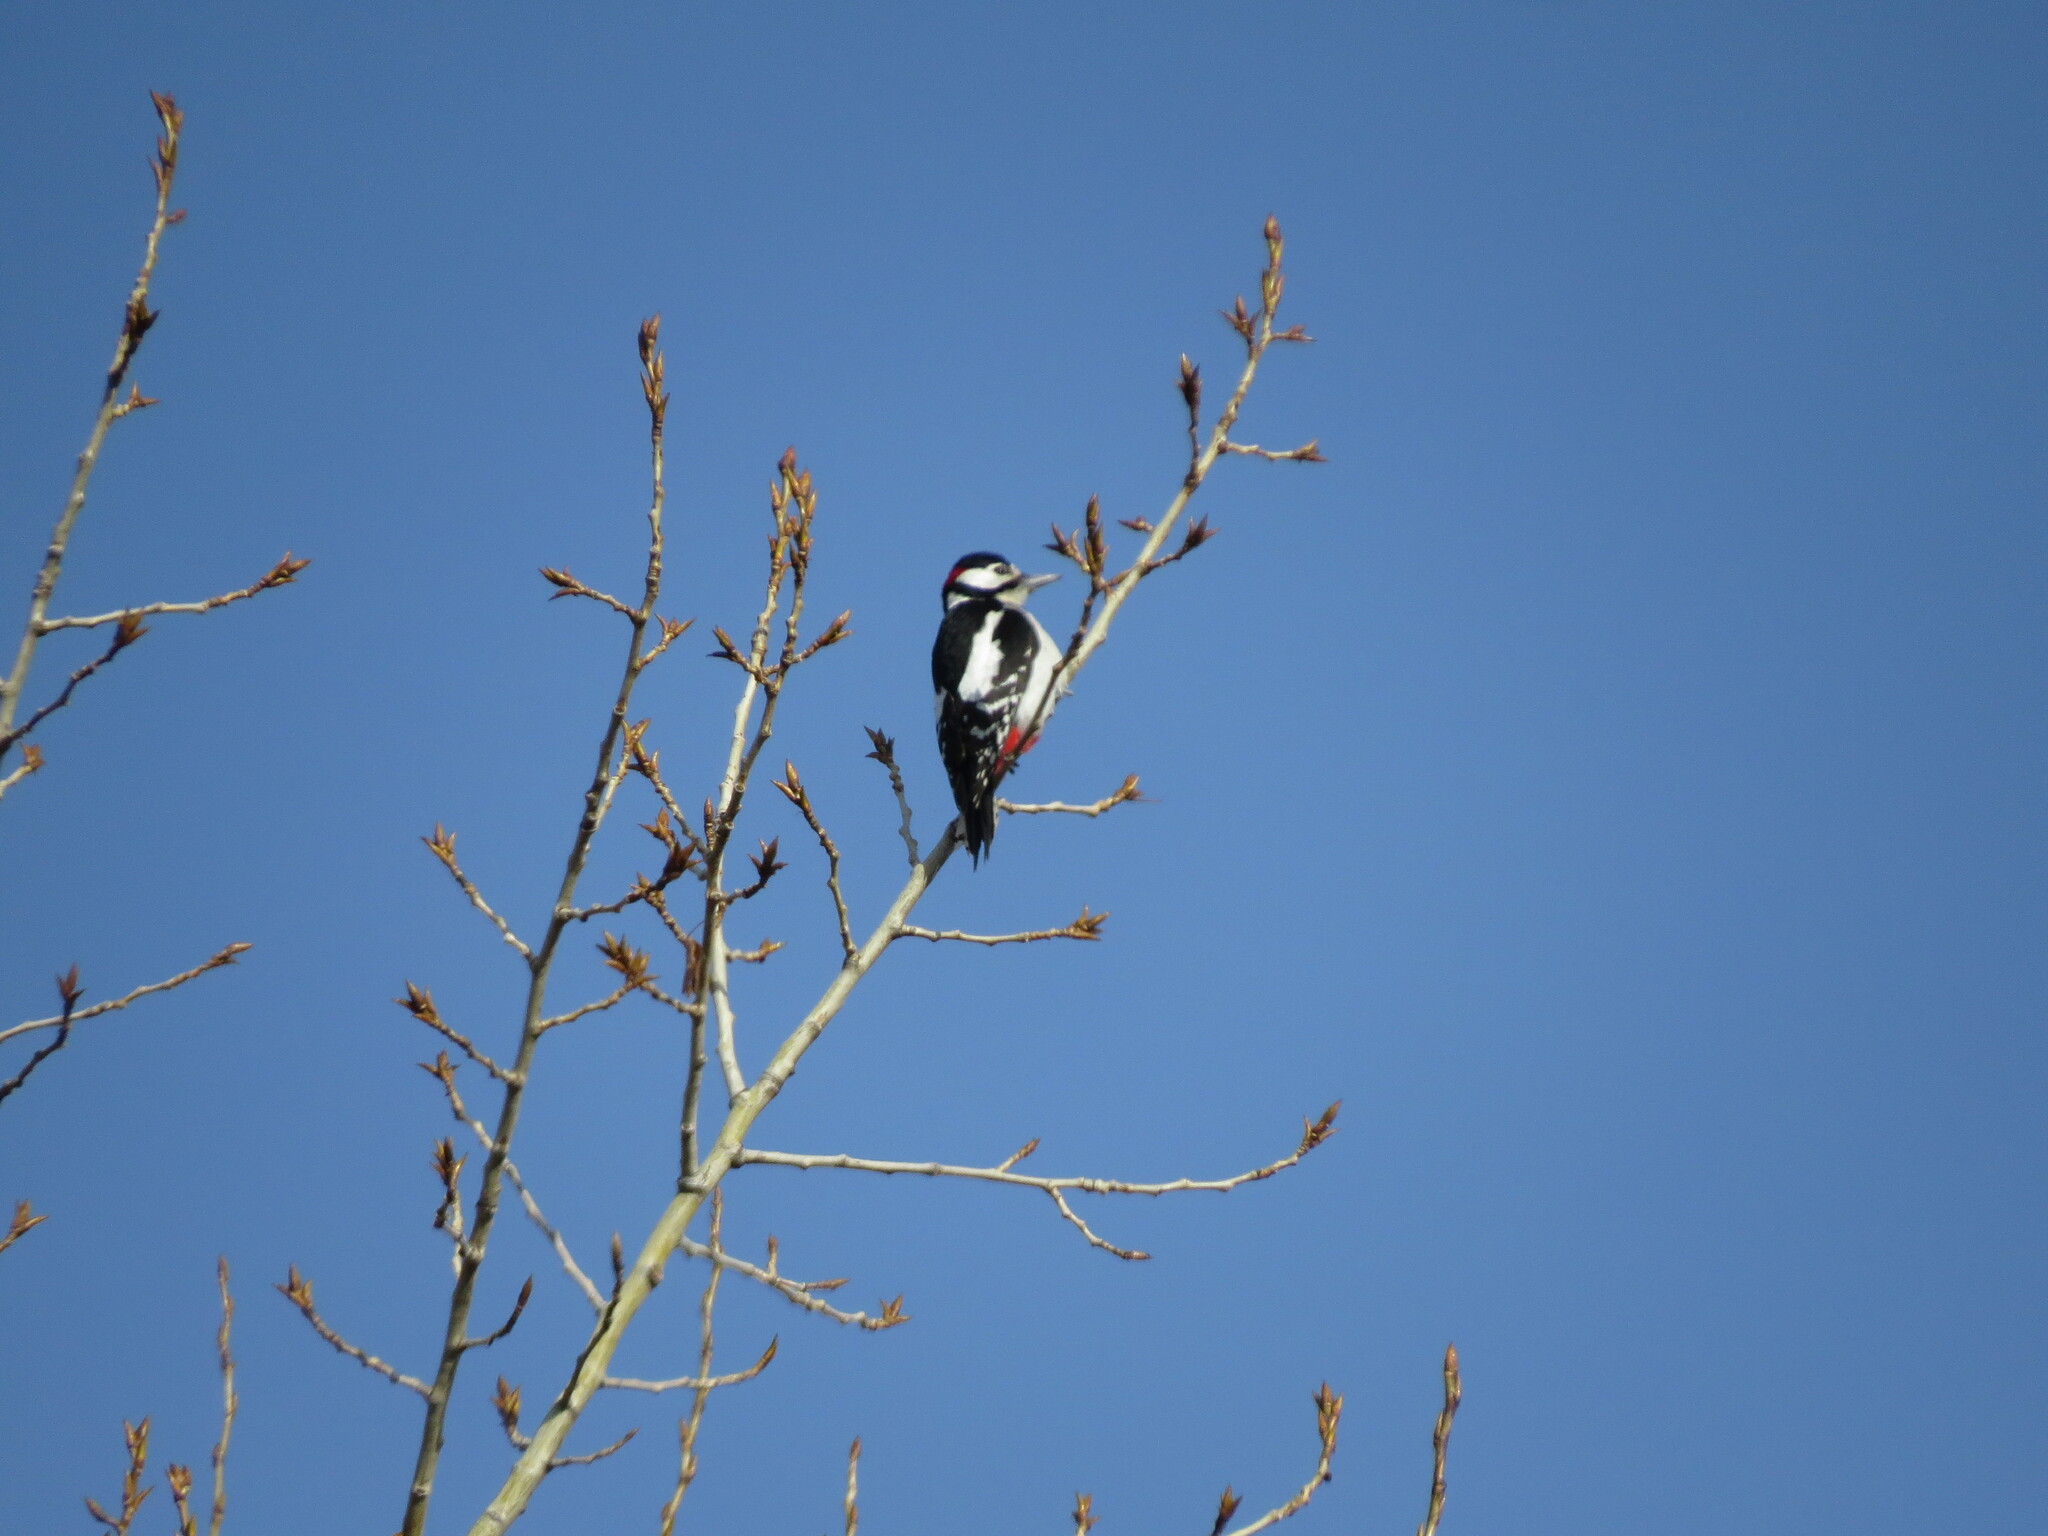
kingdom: Animalia
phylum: Chordata
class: Aves
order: Piciformes
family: Picidae
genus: Dendrocopos
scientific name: Dendrocopos major
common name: Great spotted woodpecker
